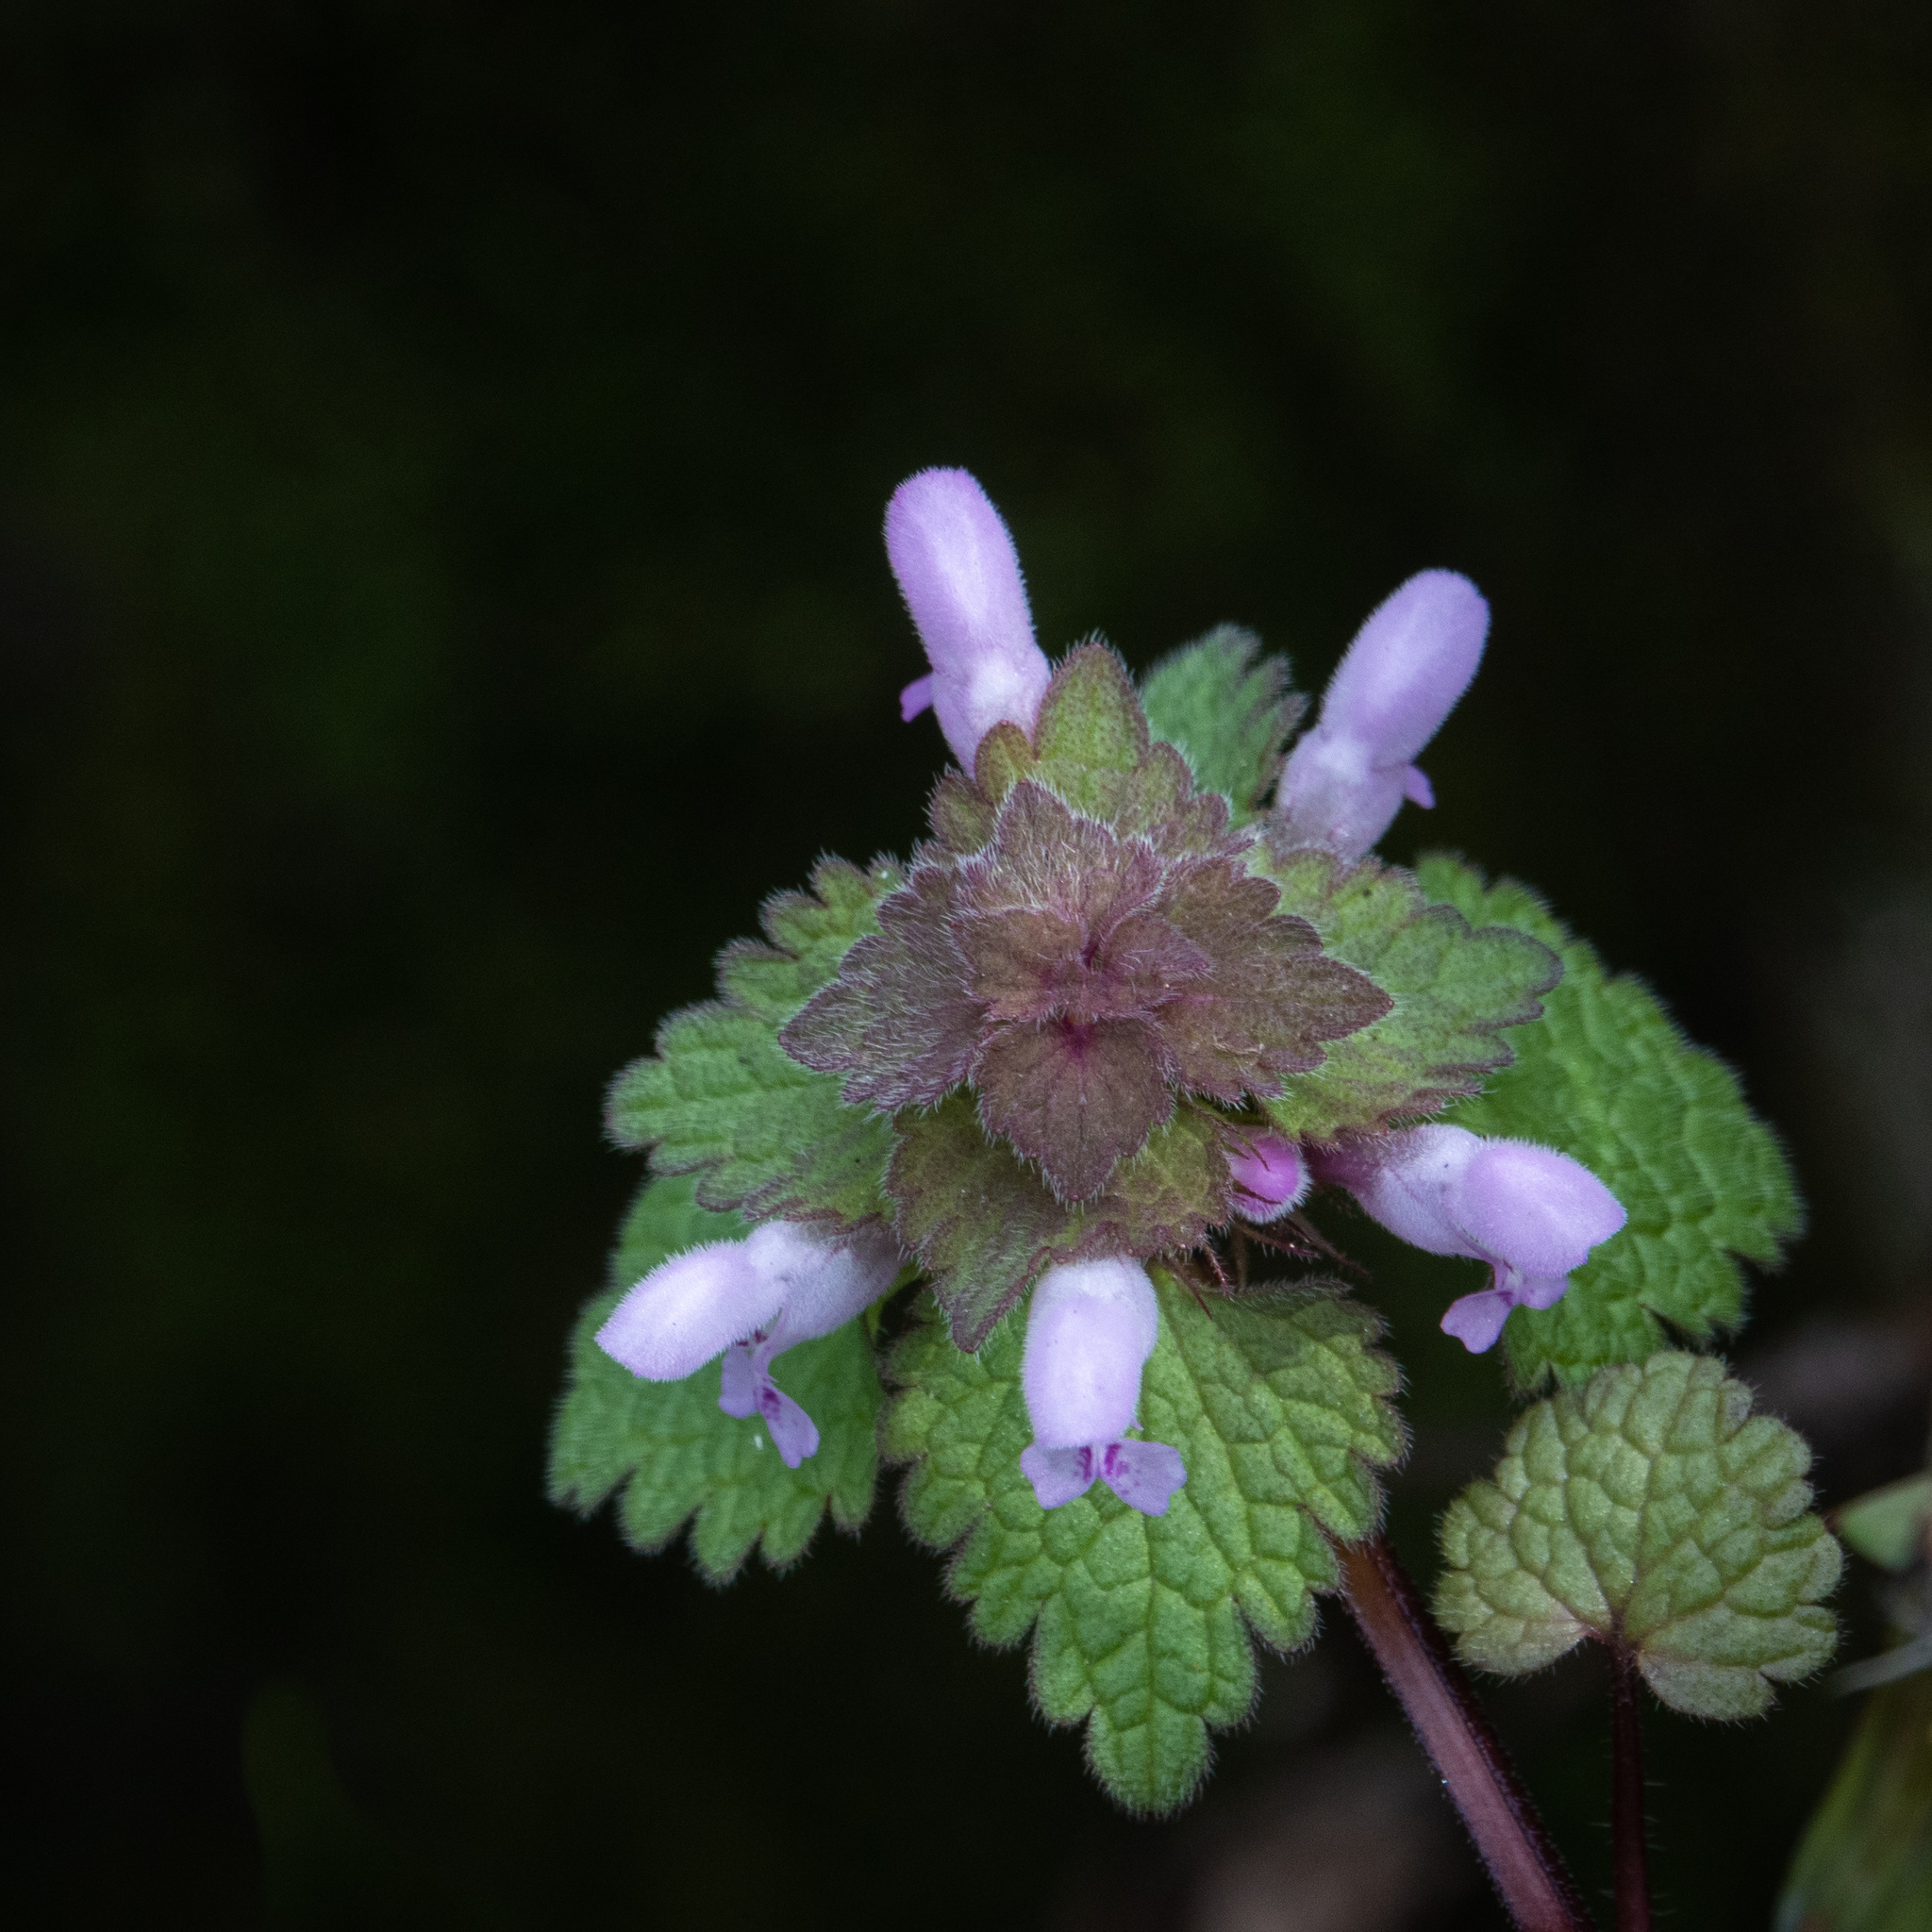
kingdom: Plantae
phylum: Tracheophyta
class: Magnoliopsida
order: Lamiales
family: Lamiaceae
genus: Lamium
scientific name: Lamium purpureum
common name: Red dead-nettle
